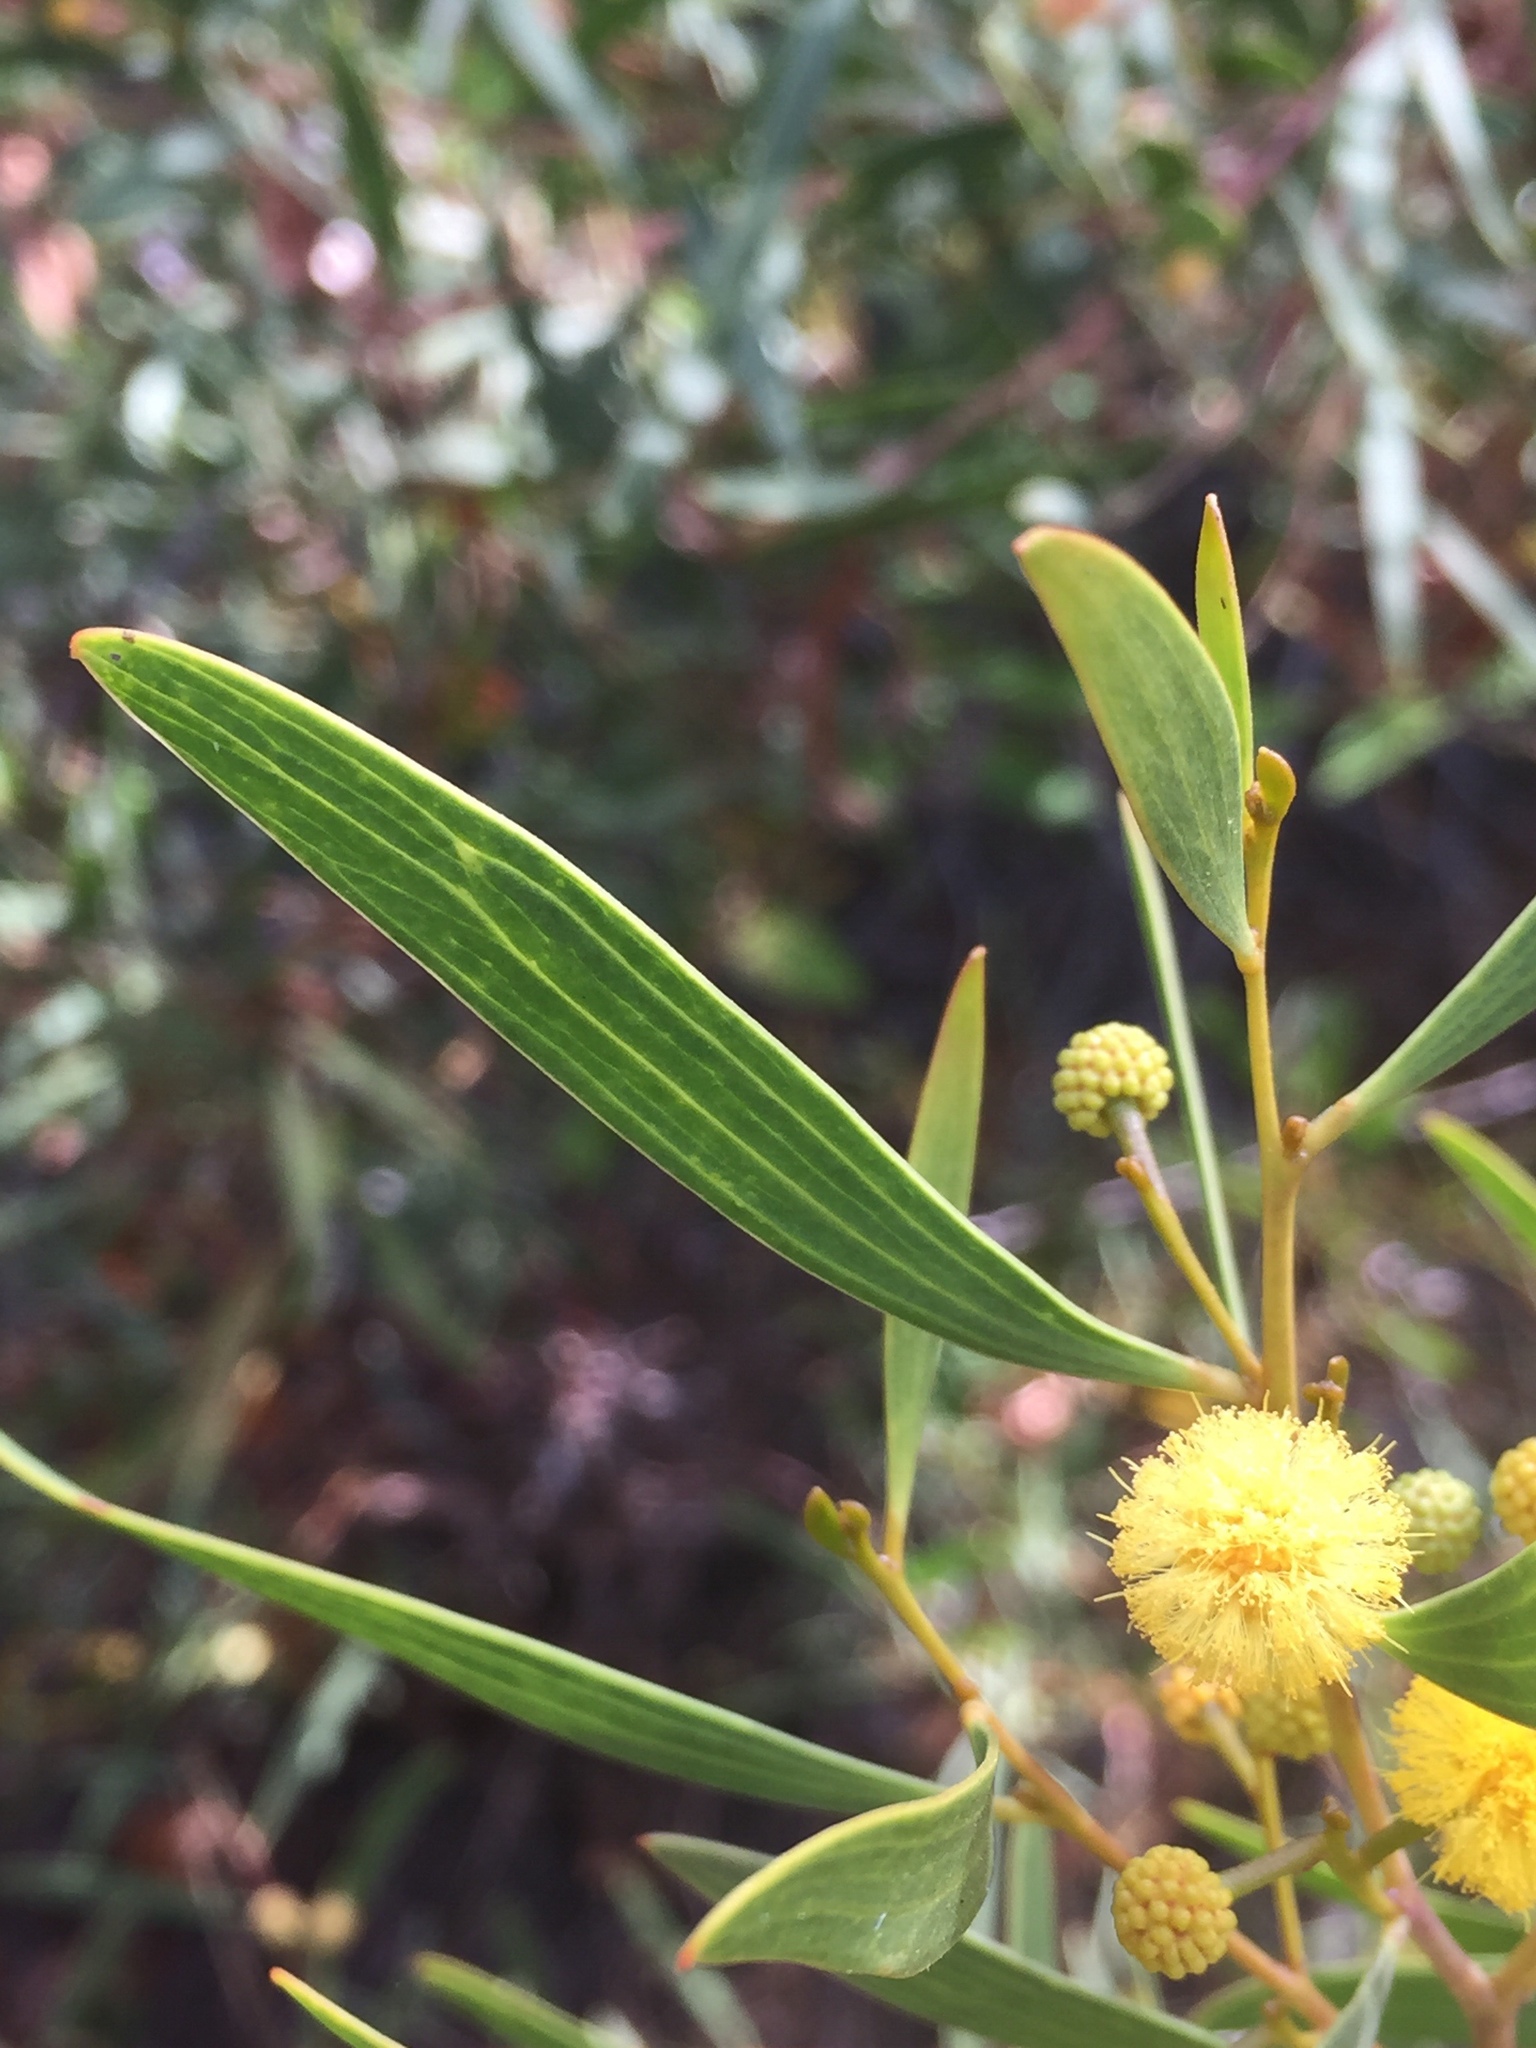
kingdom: Plantae
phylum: Tracheophyta
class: Magnoliopsida
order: Fabales
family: Fabaceae
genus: Acacia
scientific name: Acacia cyclops
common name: Coastal wattle
